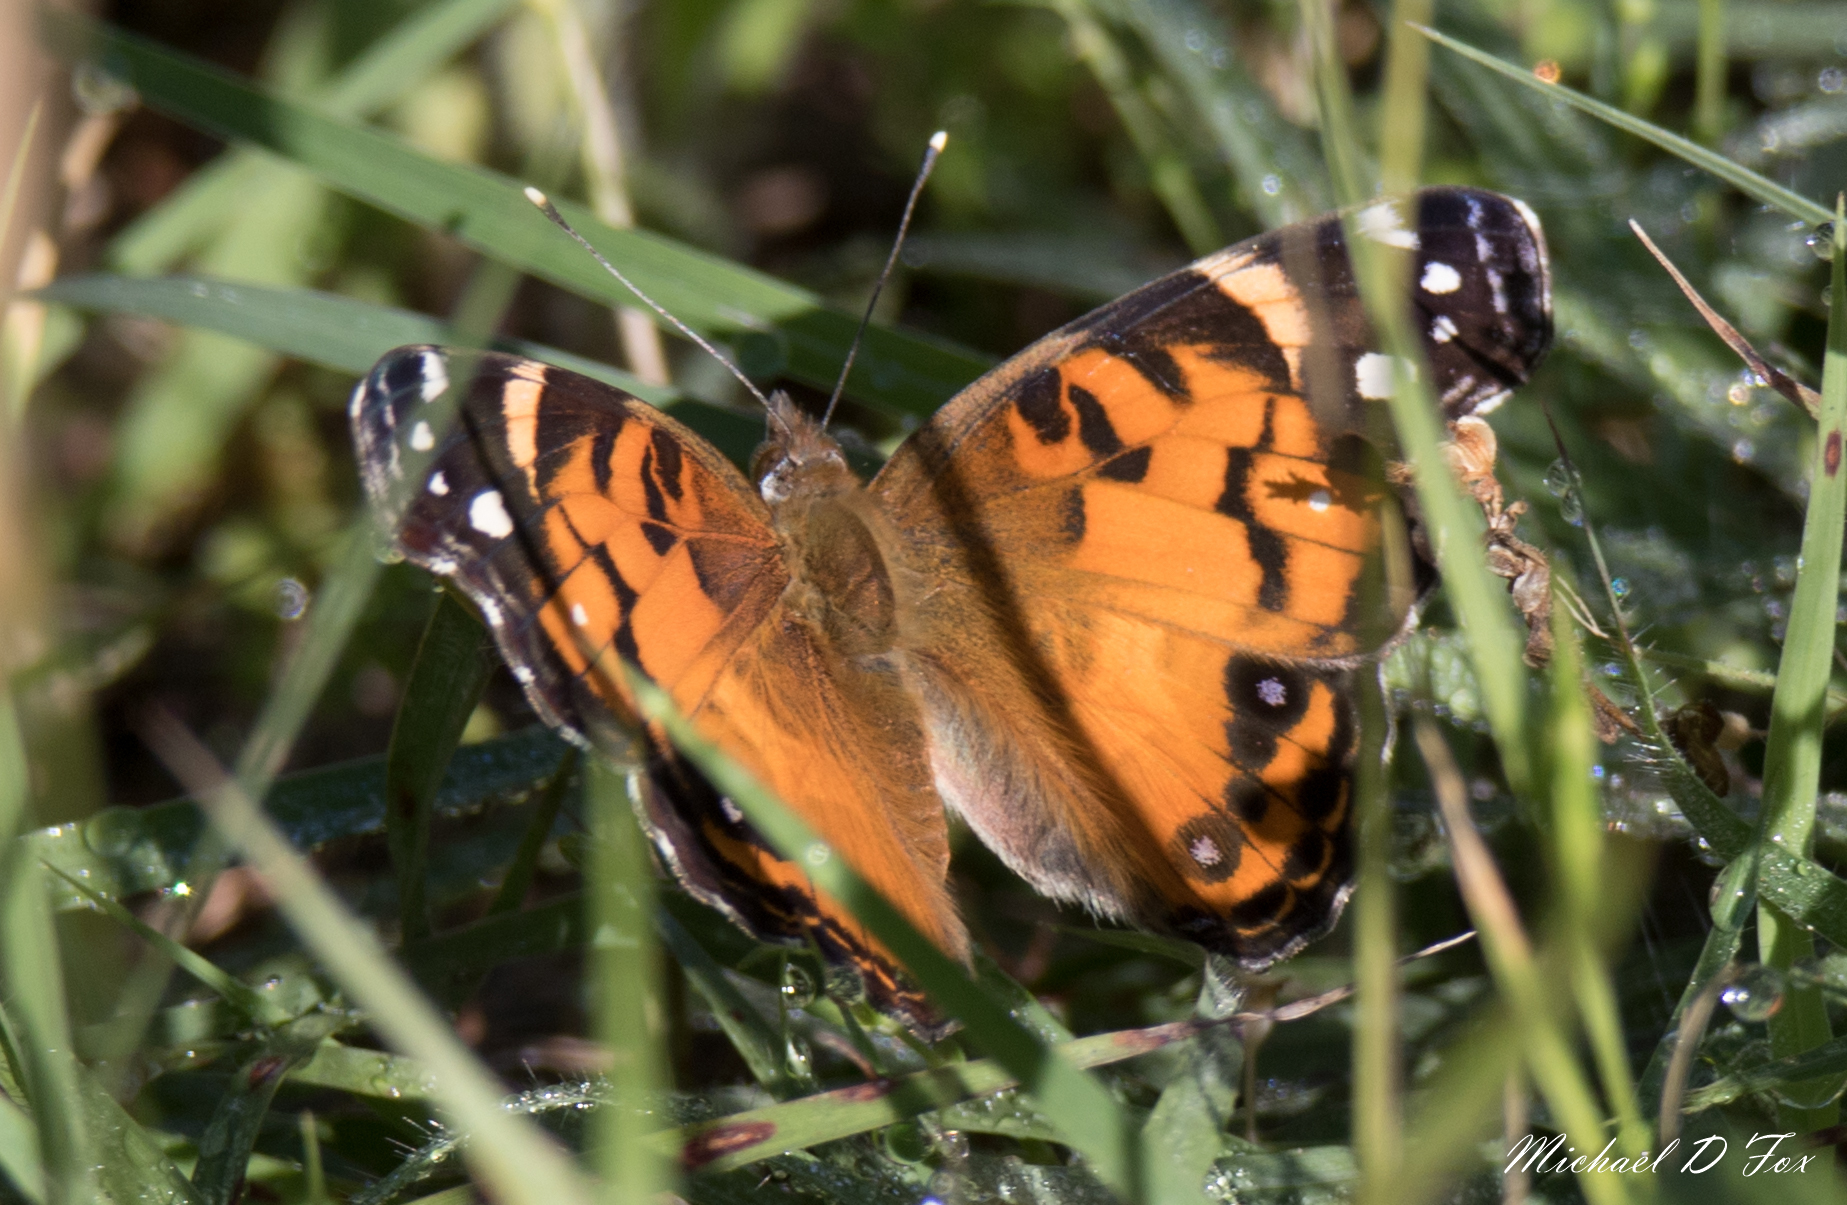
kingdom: Animalia
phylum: Arthropoda
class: Insecta
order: Lepidoptera
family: Nymphalidae
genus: Vanessa
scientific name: Vanessa virginiensis
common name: American lady
